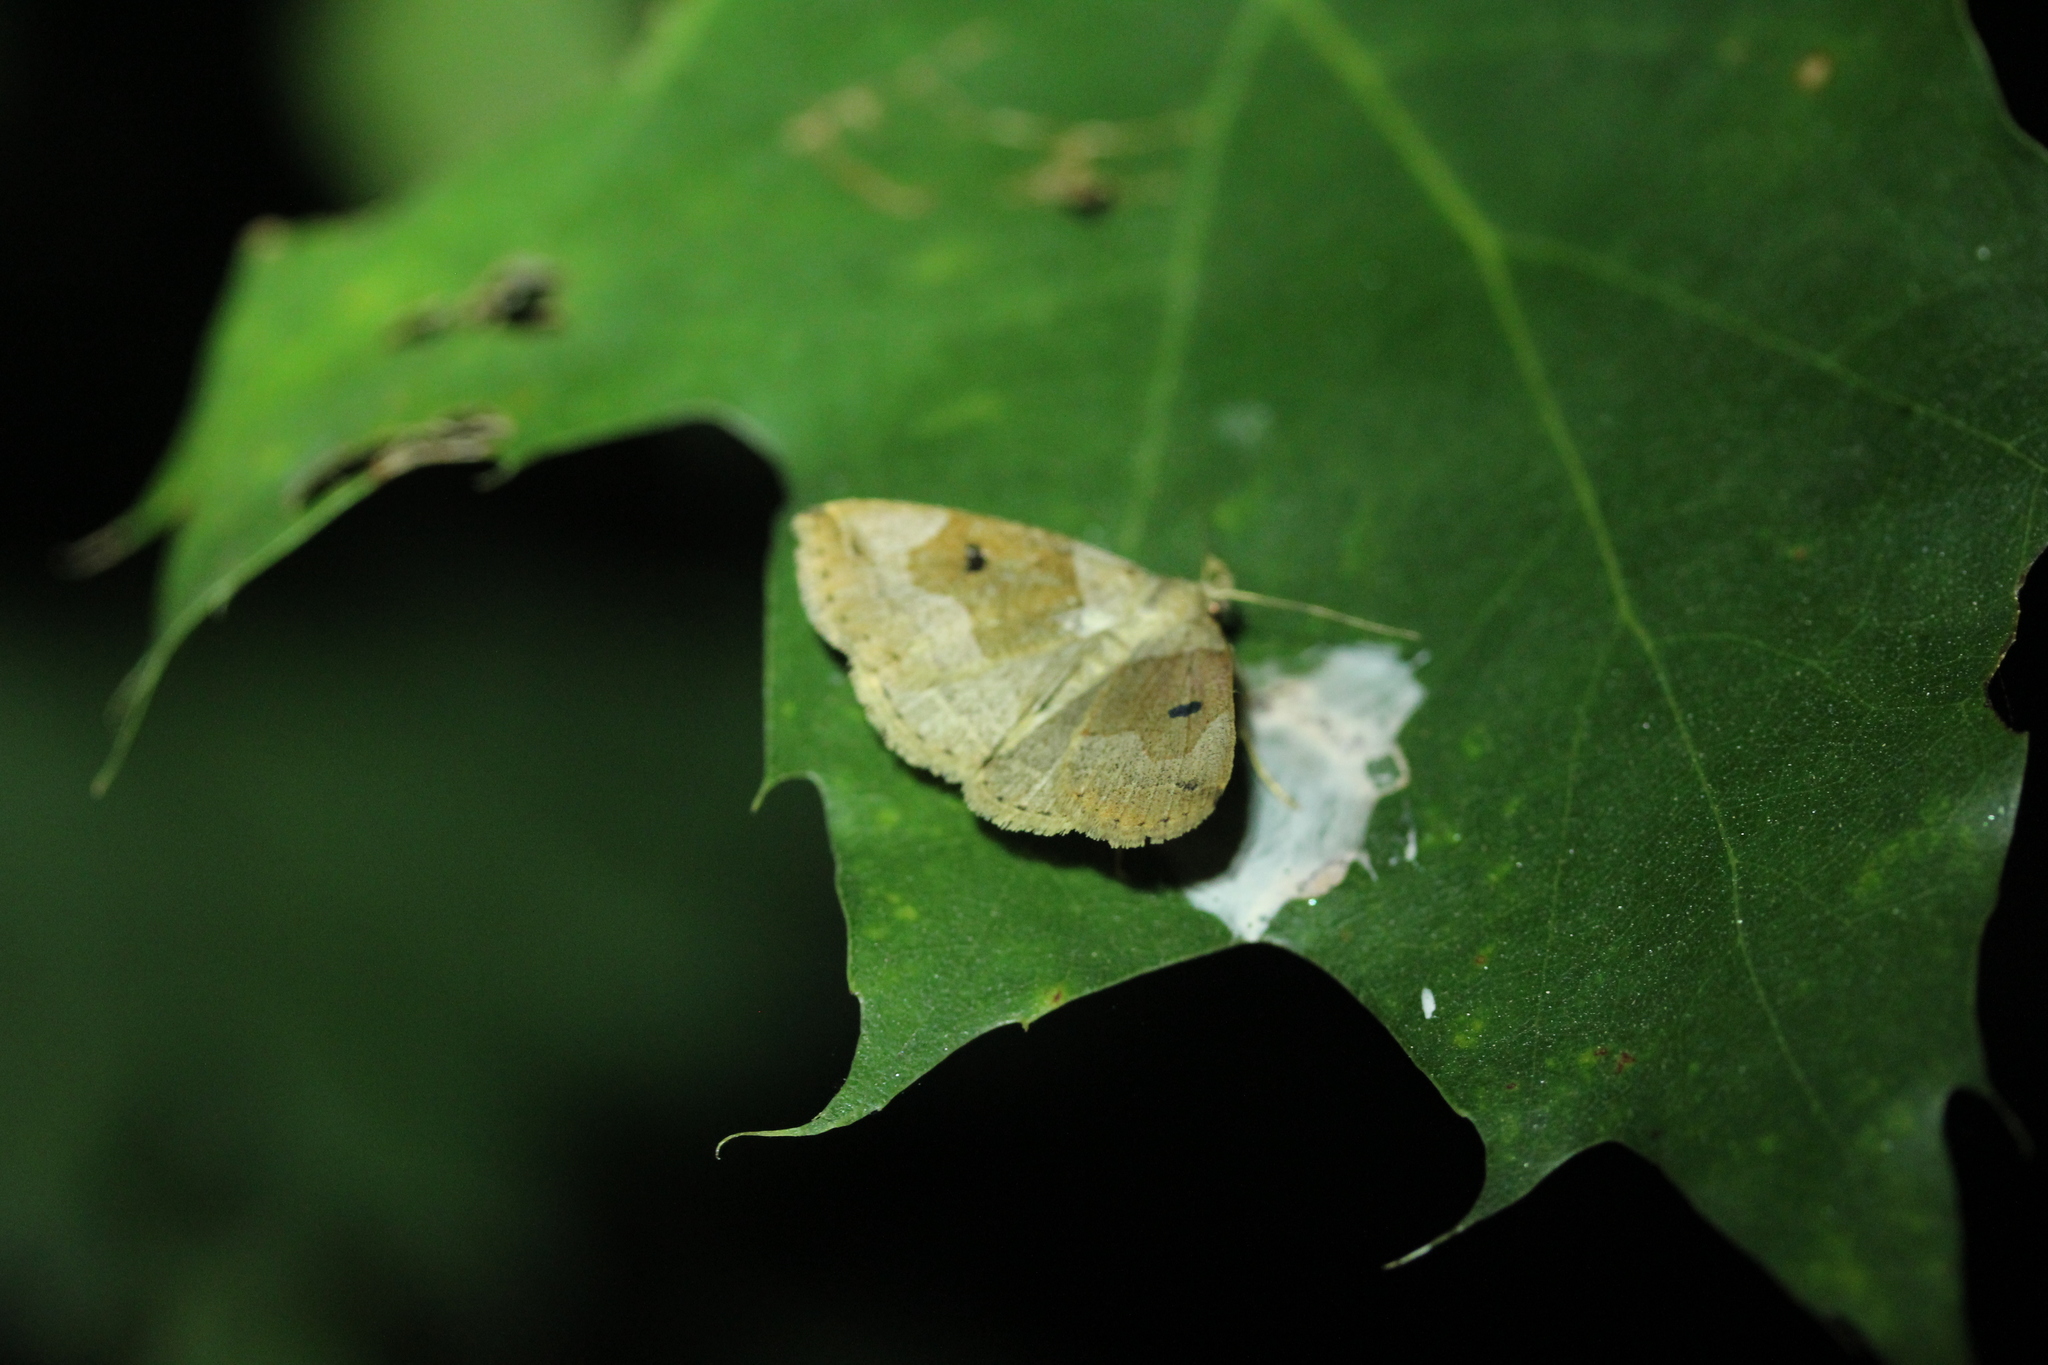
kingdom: Animalia
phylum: Arthropoda
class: Insecta
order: Lepidoptera
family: Erebidae
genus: Zanclognatha
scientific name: Zanclognatha laevigata
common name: Variable fan-foot
